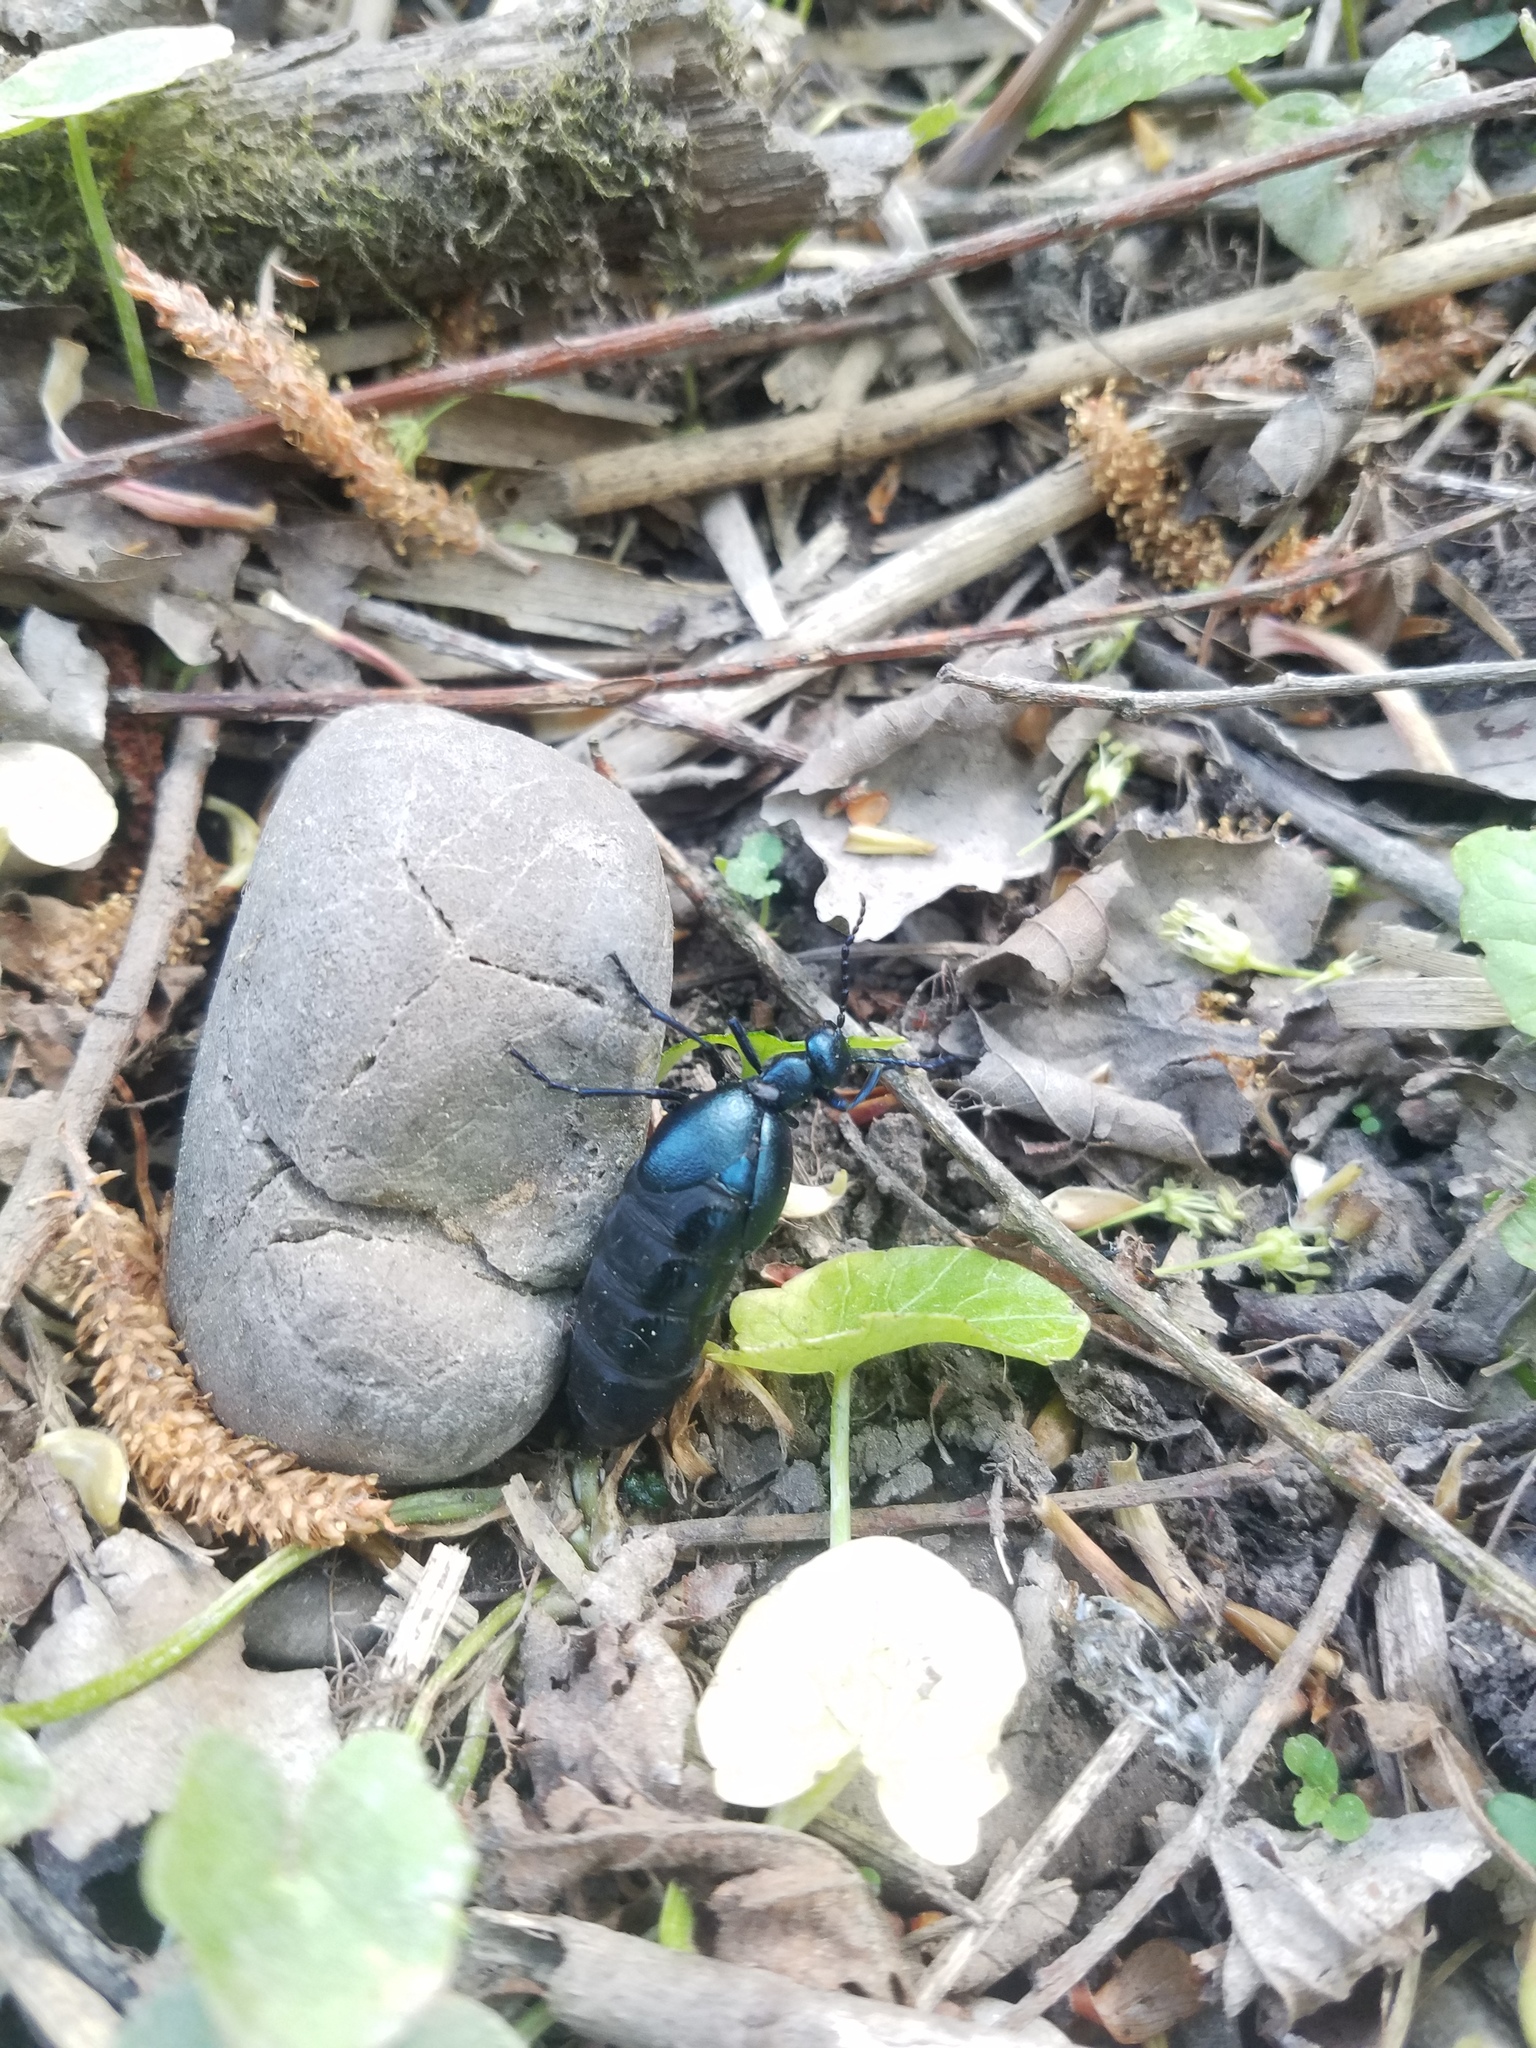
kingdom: Animalia
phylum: Arthropoda
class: Insecta
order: Coleoptera
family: Meloidae
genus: Meloe
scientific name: Meloe violaceus
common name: Violet oil-beetle
